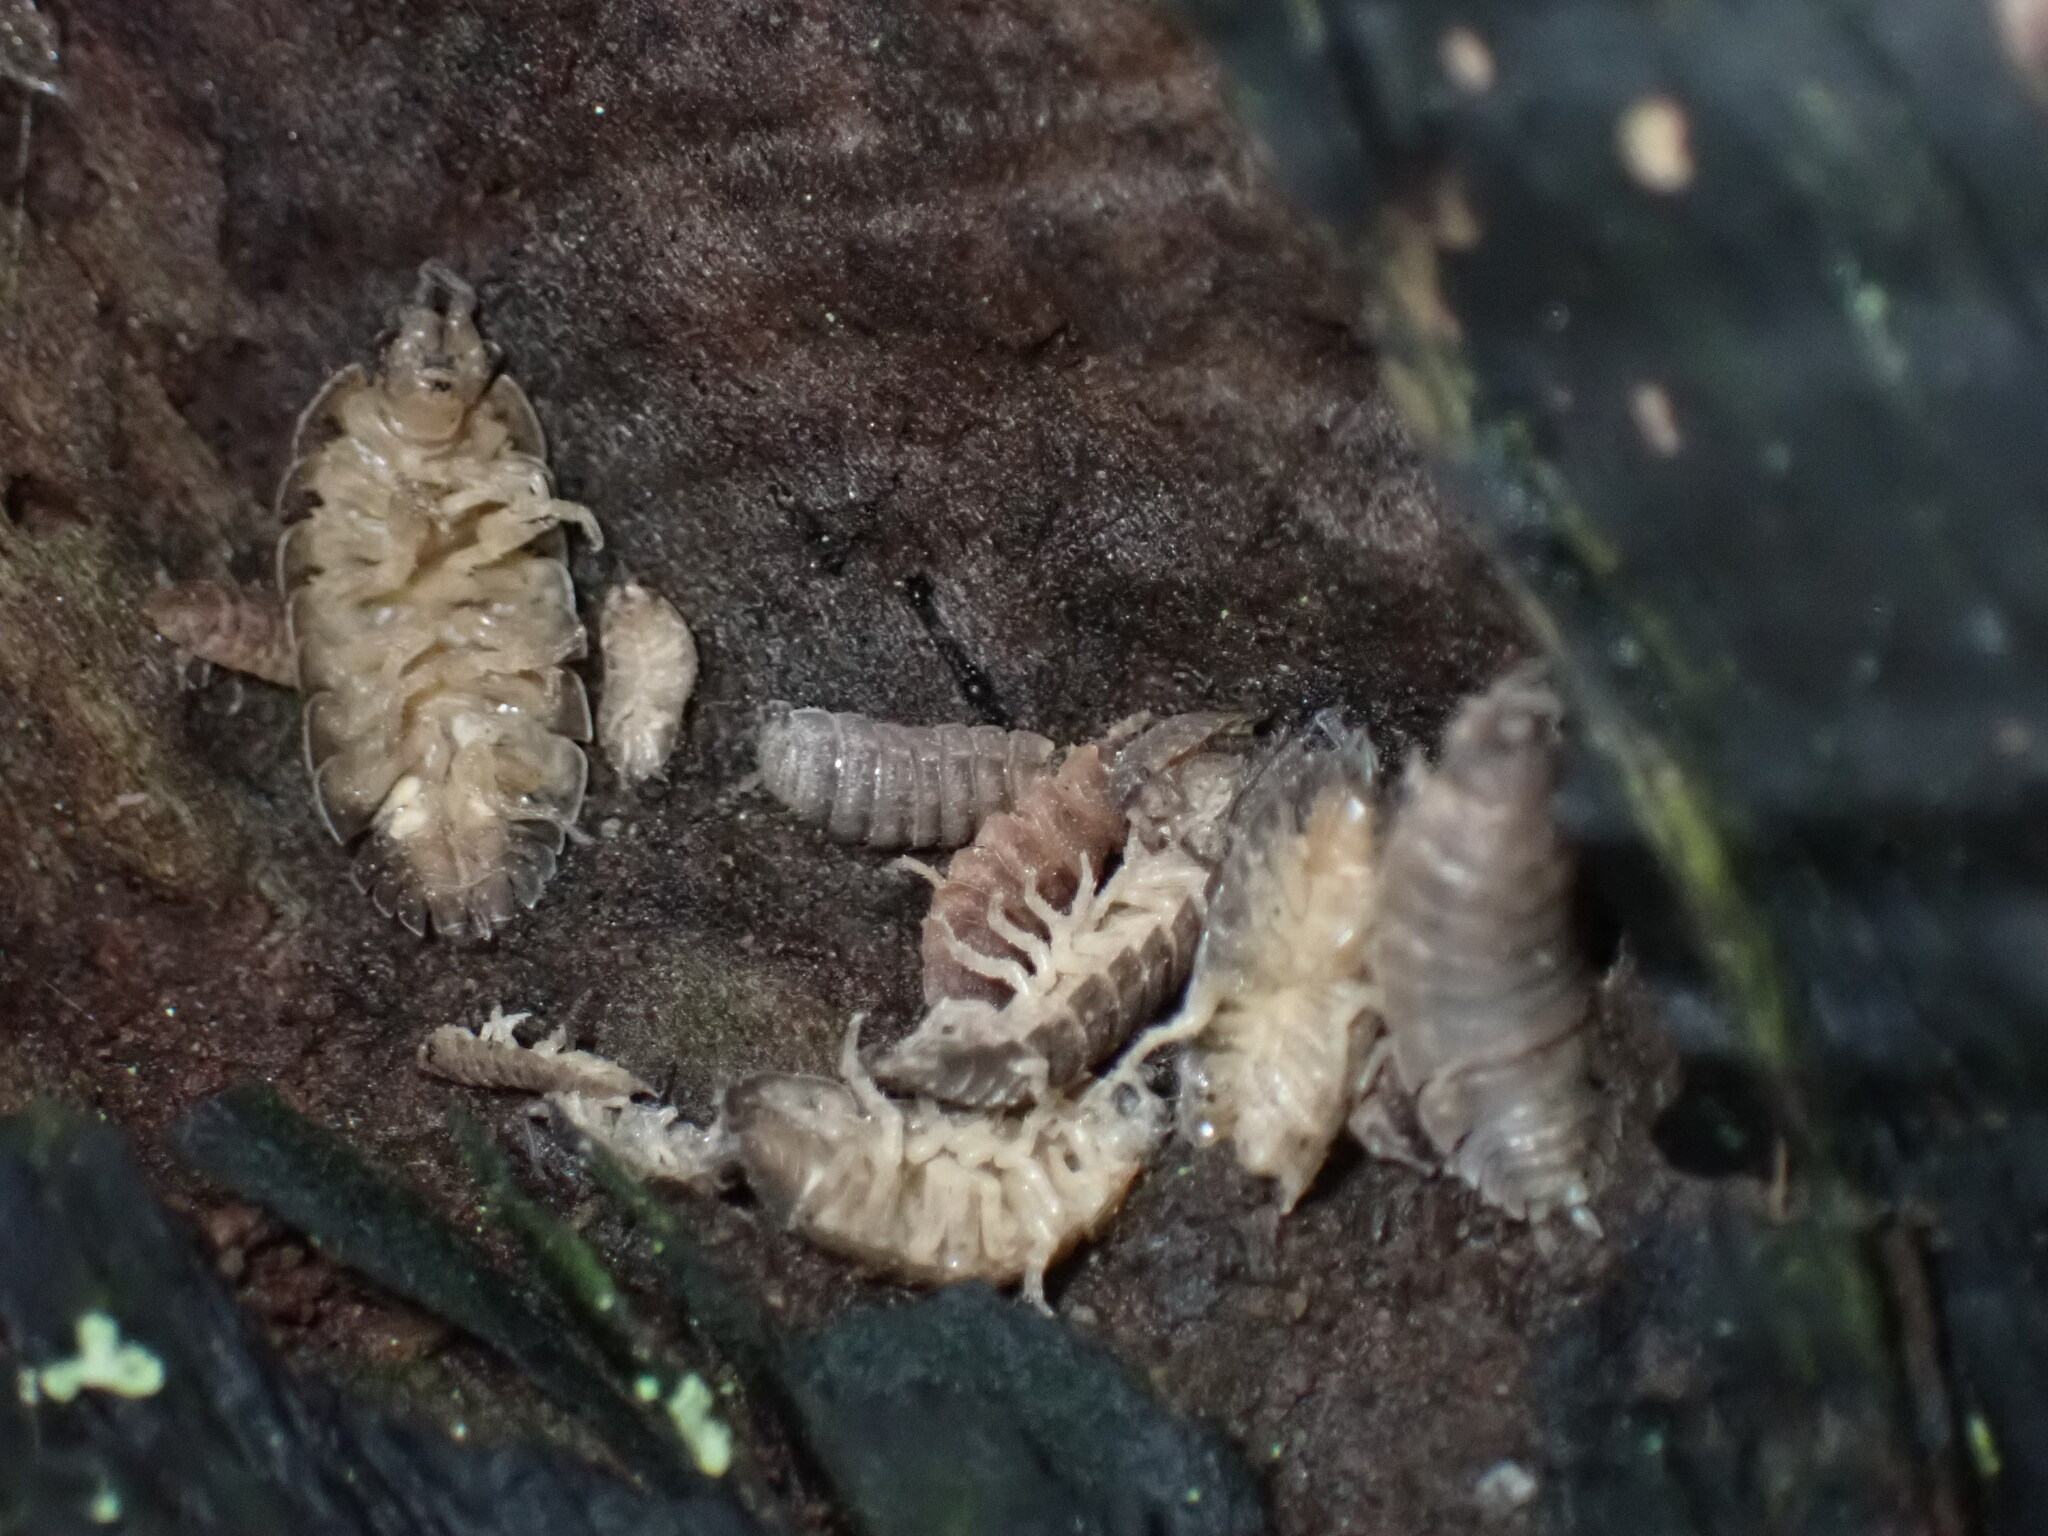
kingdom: Animalia
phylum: Arthropoda
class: Malacostraca
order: Isopoda
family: Porcellionidae
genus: Porcellio
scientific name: Porcellio scaber
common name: Common rough woodlouse
